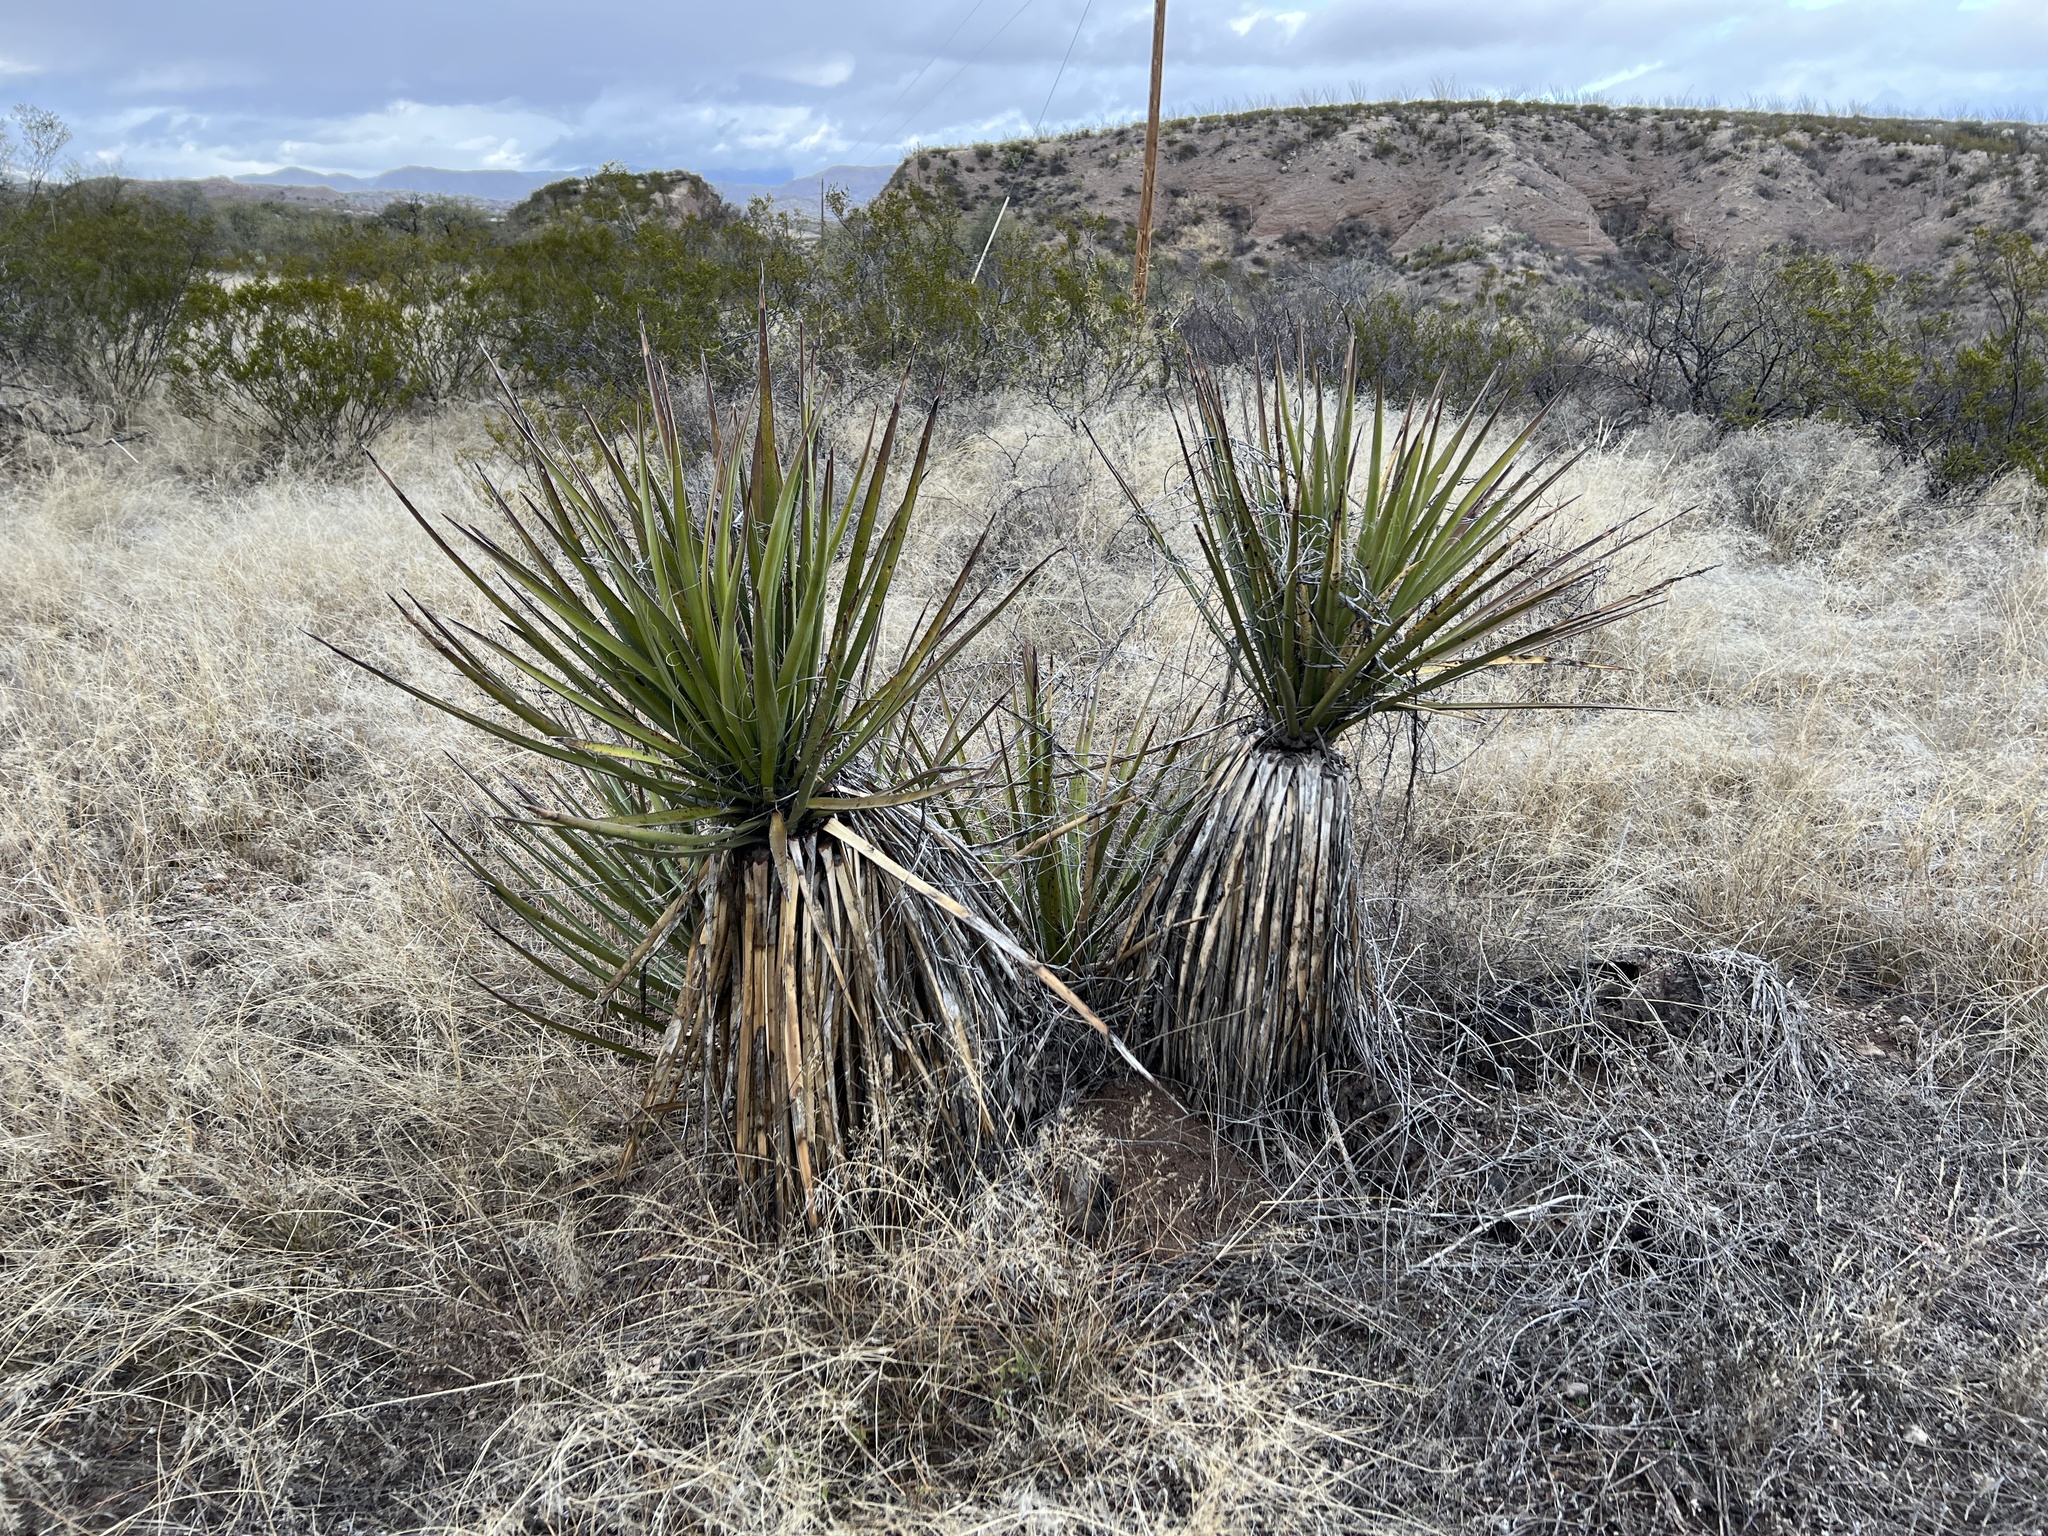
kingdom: Plantae
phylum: Tracheophyta
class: Liliopsida
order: Asparagales
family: Asparagaceae
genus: Yucca
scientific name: Yucca baccata
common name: Banana yucca
